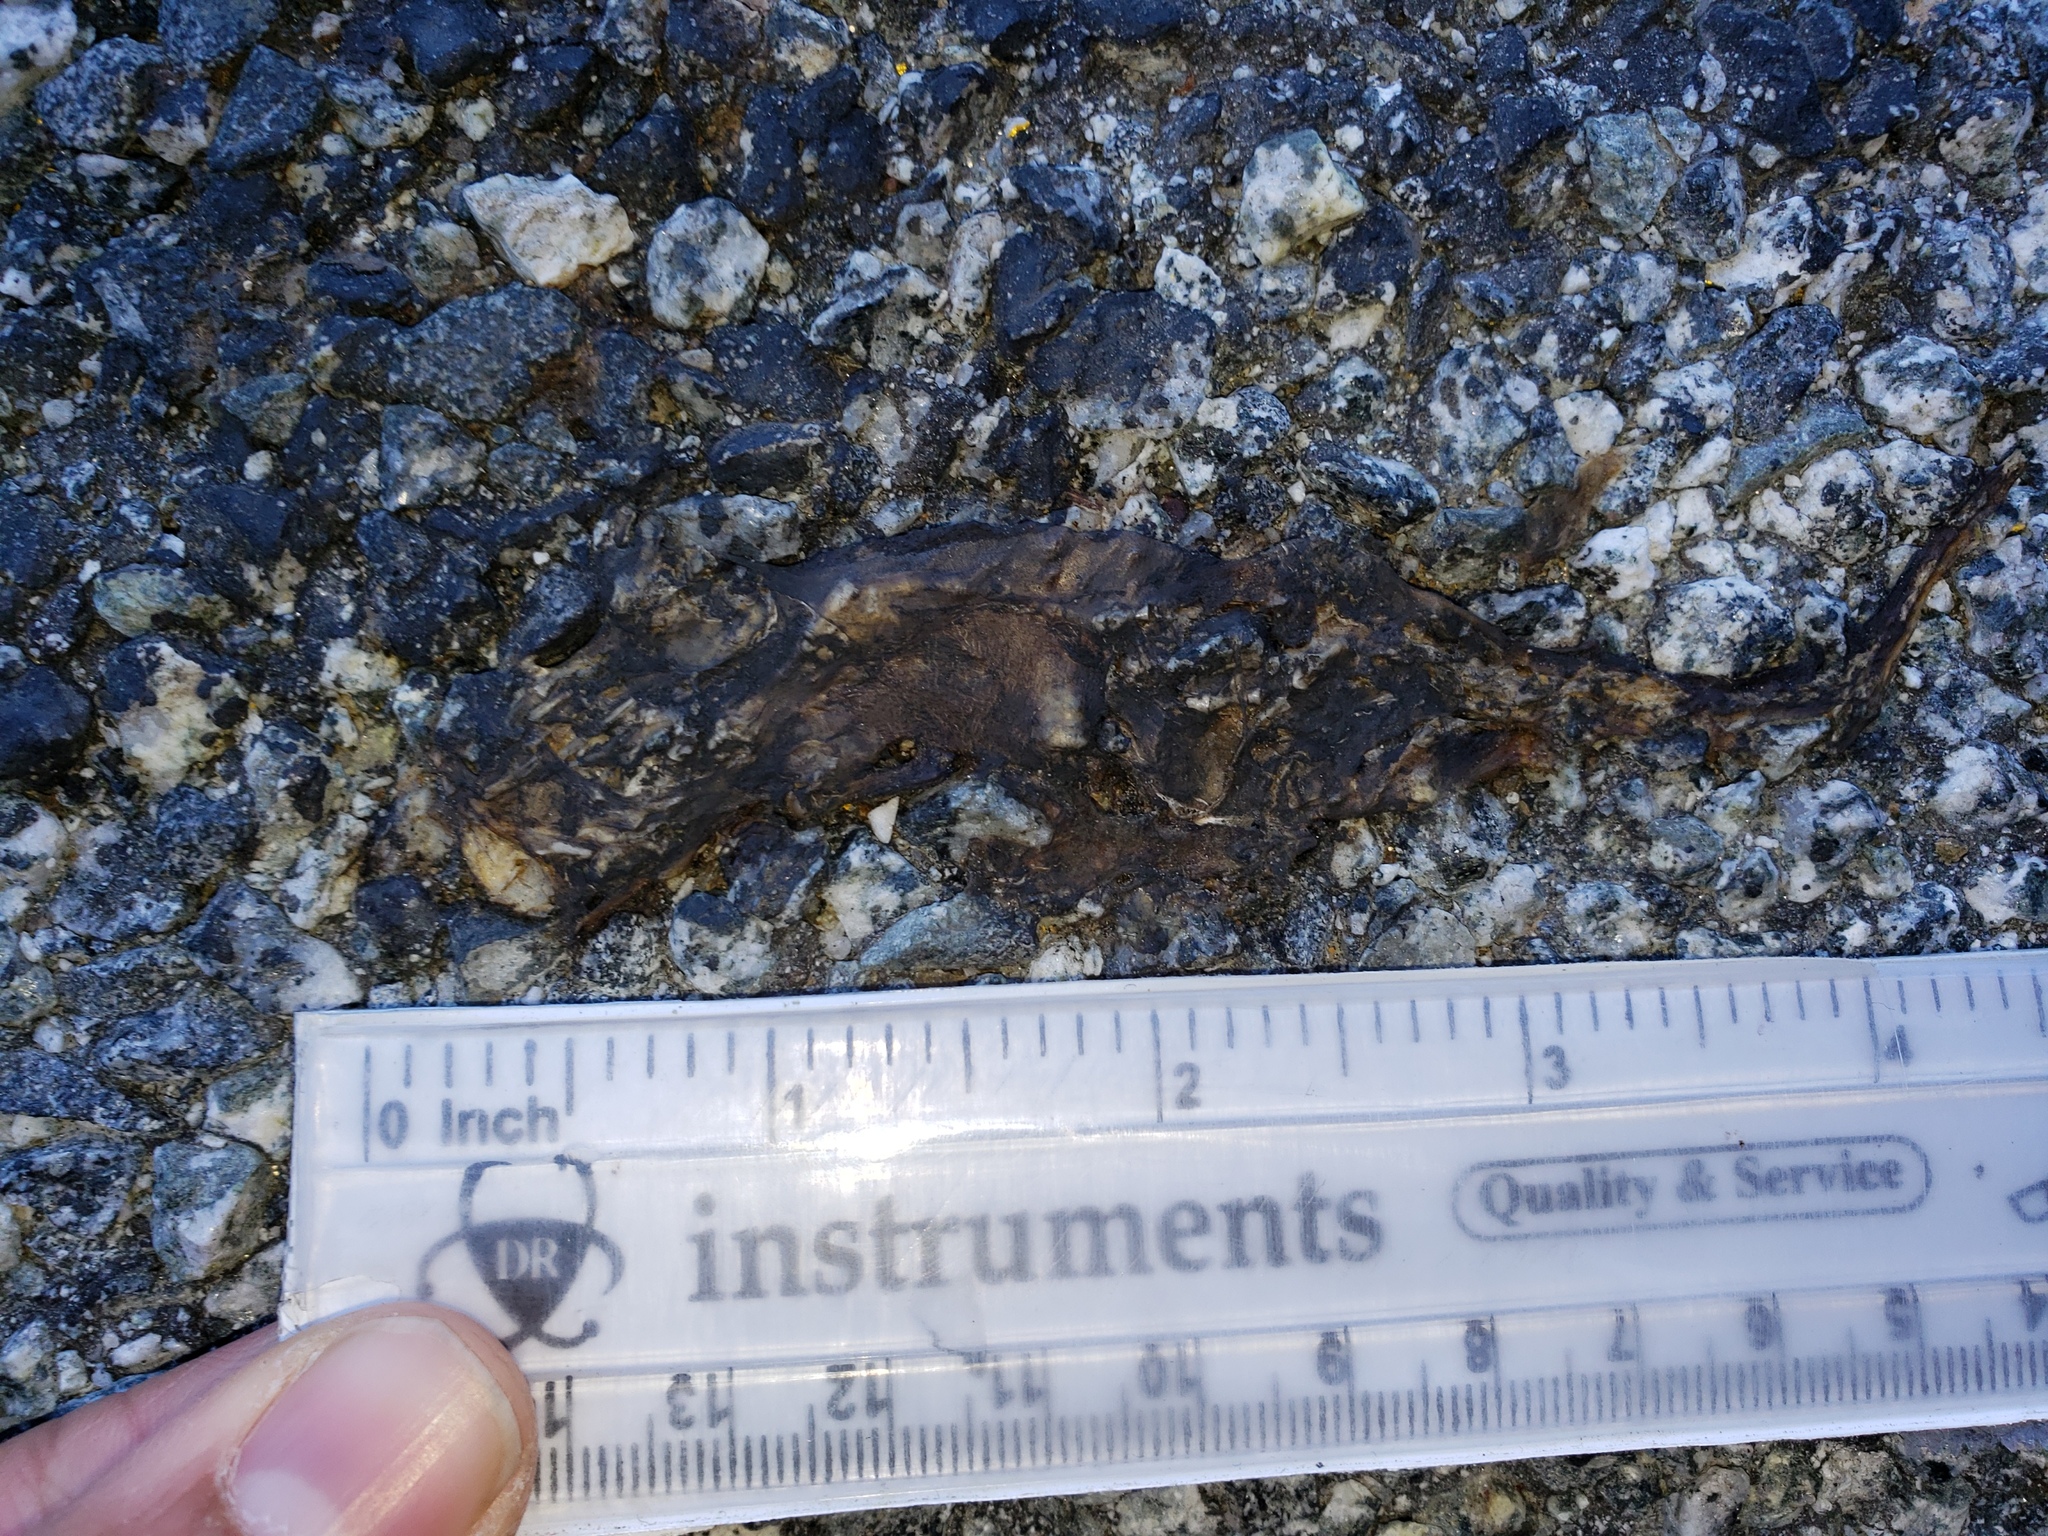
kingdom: Animalia
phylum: Chordata
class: Amphibia
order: Caudata
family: Salamandridae
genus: Taricha
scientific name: Taricha
